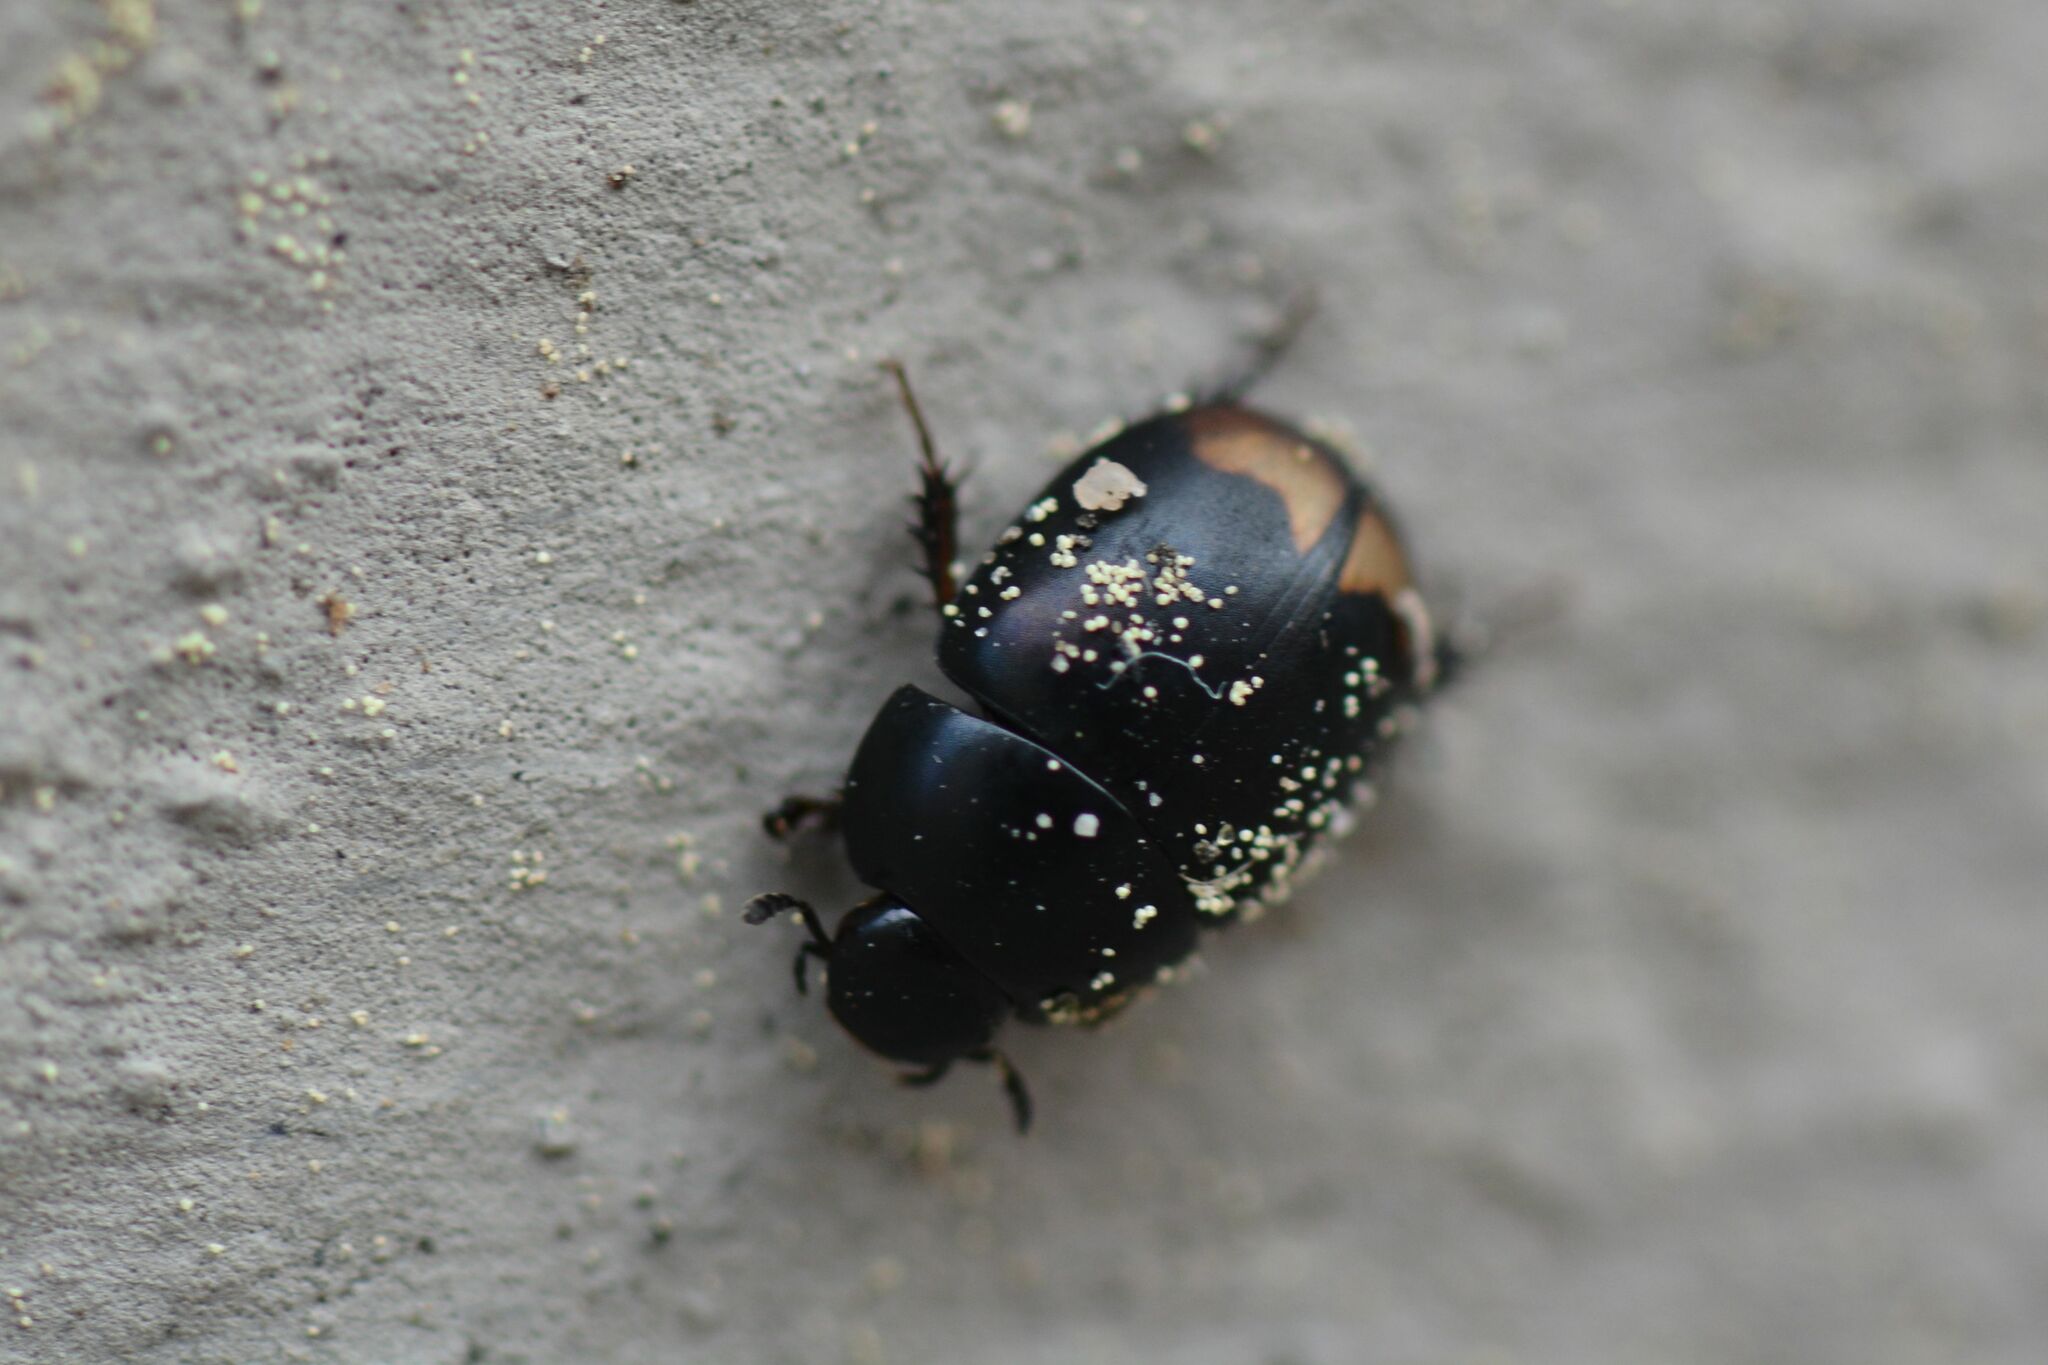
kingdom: Animalia
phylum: Arthropoda
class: Insecta
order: Coleoptera
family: Hydrophilidae
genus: Sphaeridium
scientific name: Sphaeridium lunatum
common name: Water scavenger beetle
